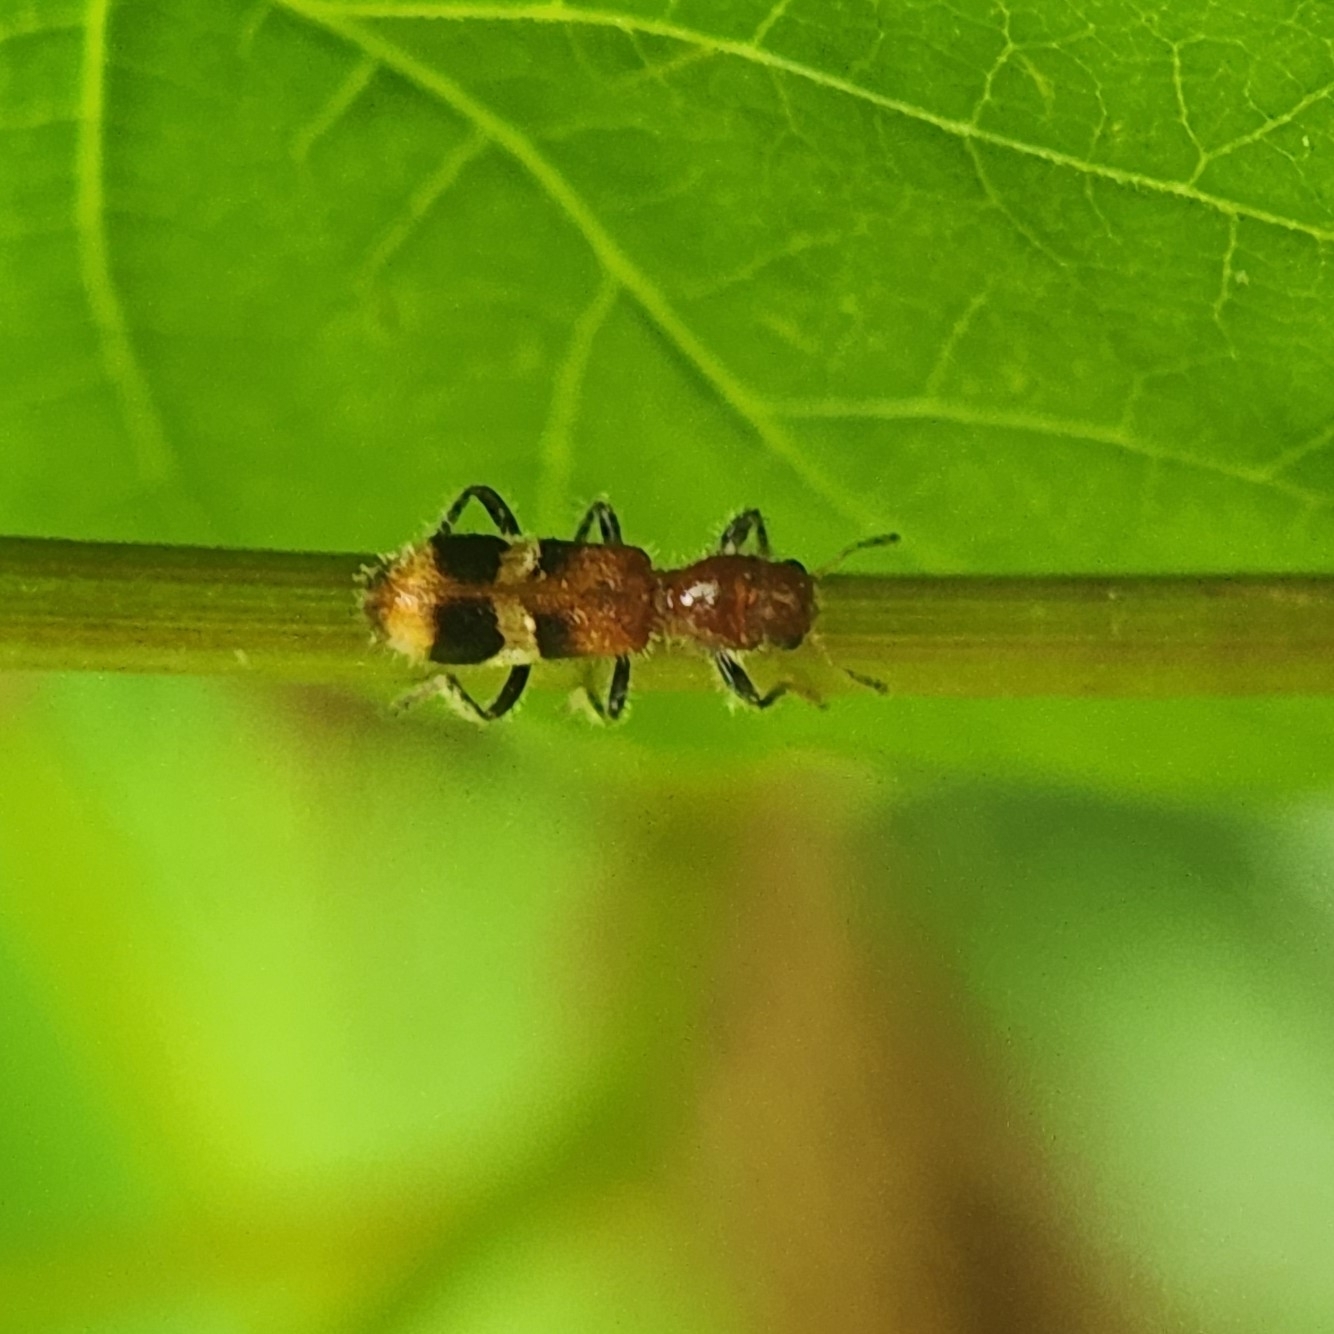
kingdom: Animalia
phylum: Arthropoda
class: Insecta
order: Coleoptera
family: Cleridae
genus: Enoclerus
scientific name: Enoclerus rosmarus
